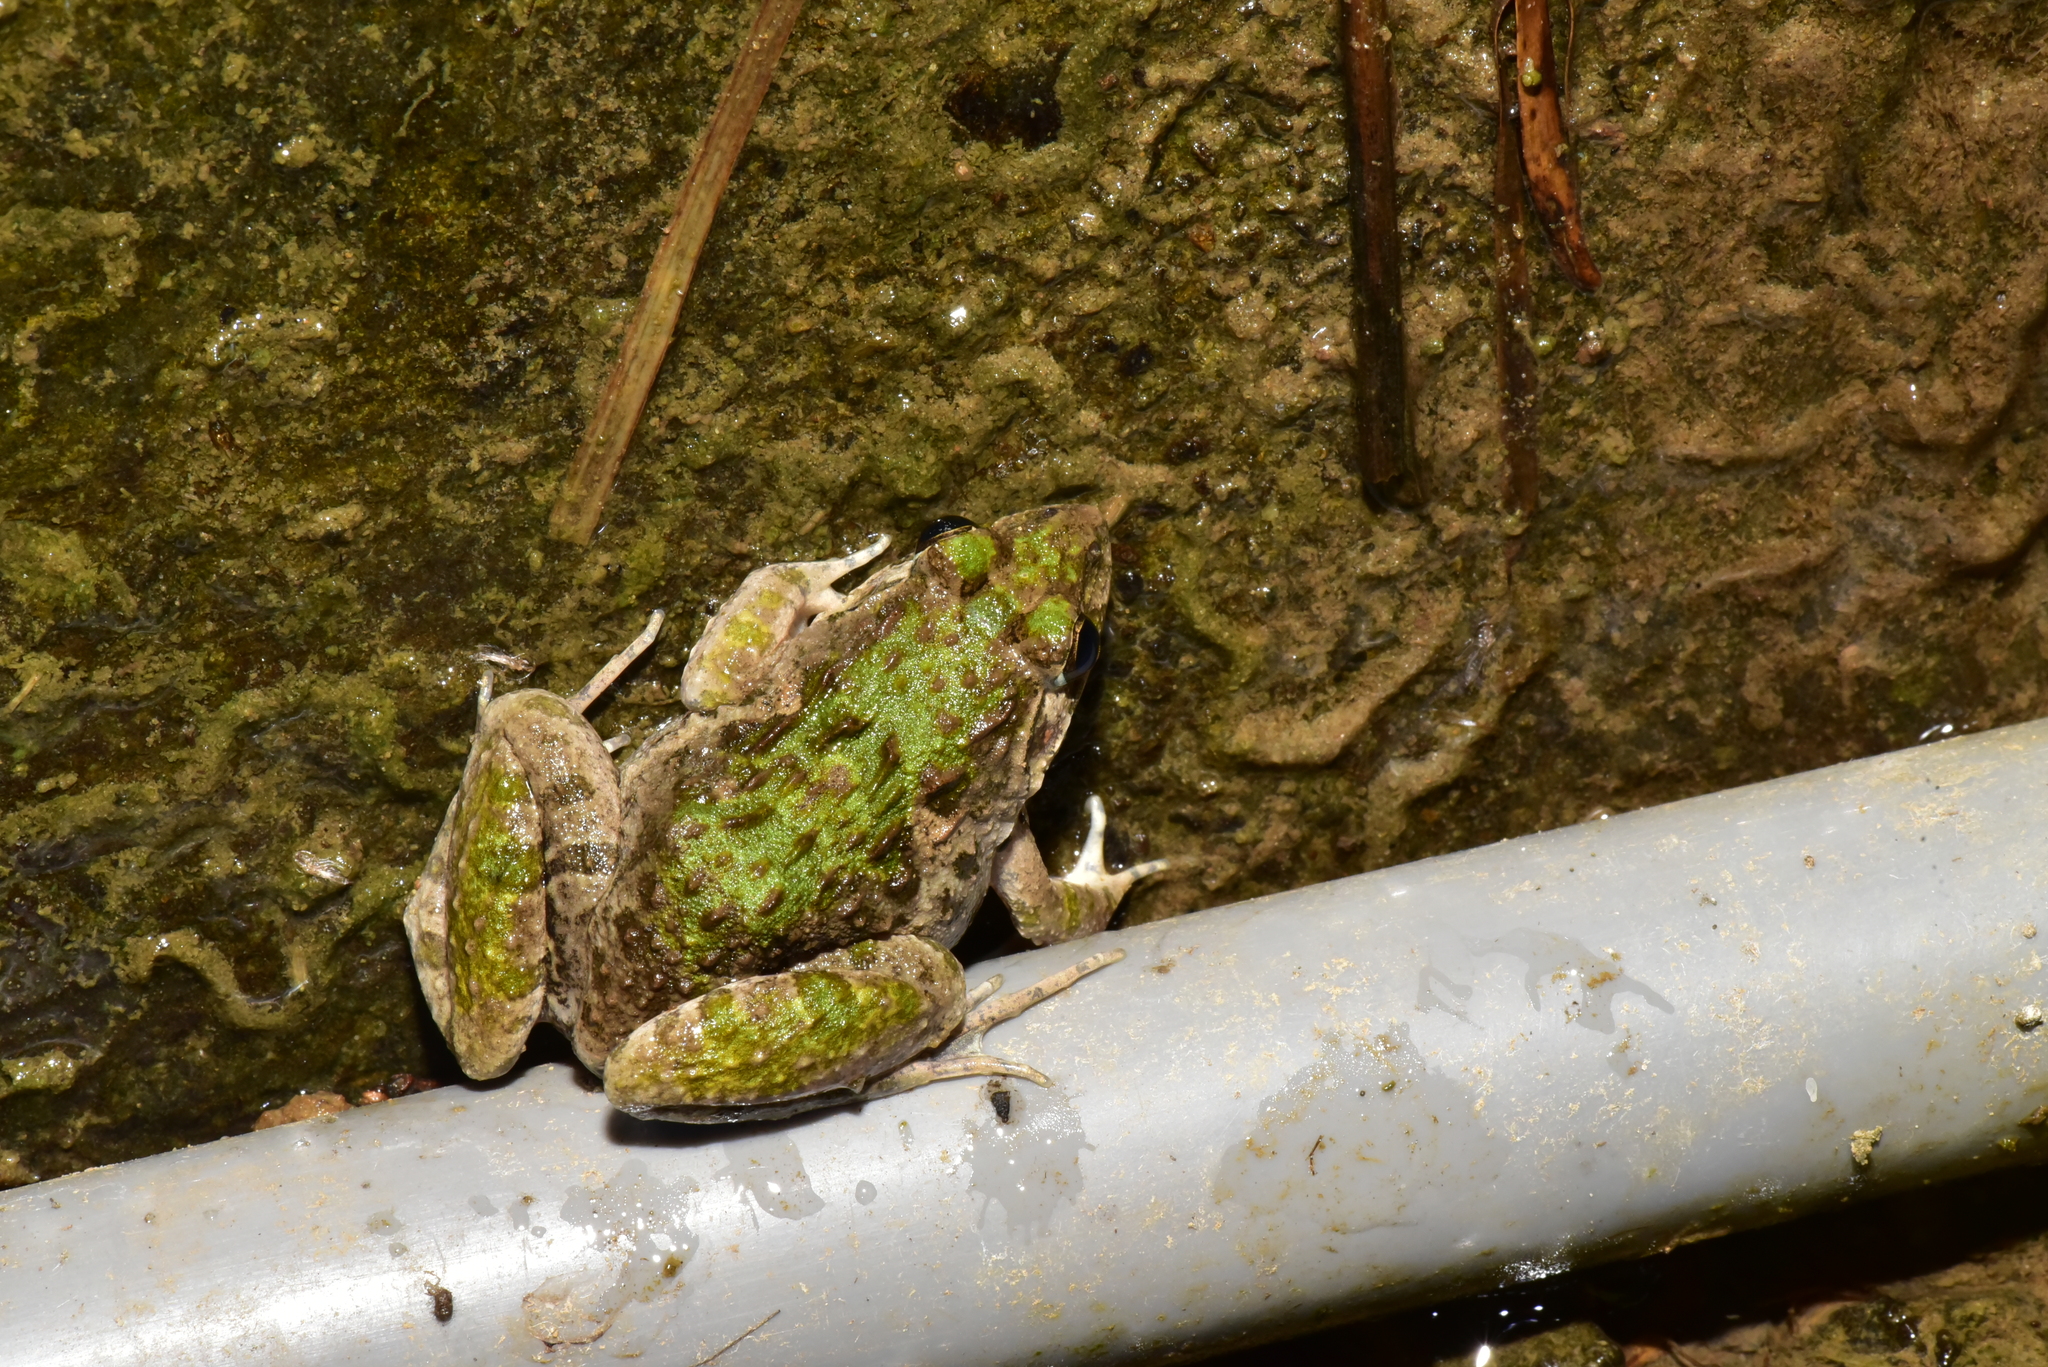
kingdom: Animalia
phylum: Chordata
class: Amphibia
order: Anura
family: Dicroglossidae
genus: Fejervarya
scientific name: Fejervarya limnocharis
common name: Asian grass frog/common pond frog/field frog/grass frog/indian rice frog
